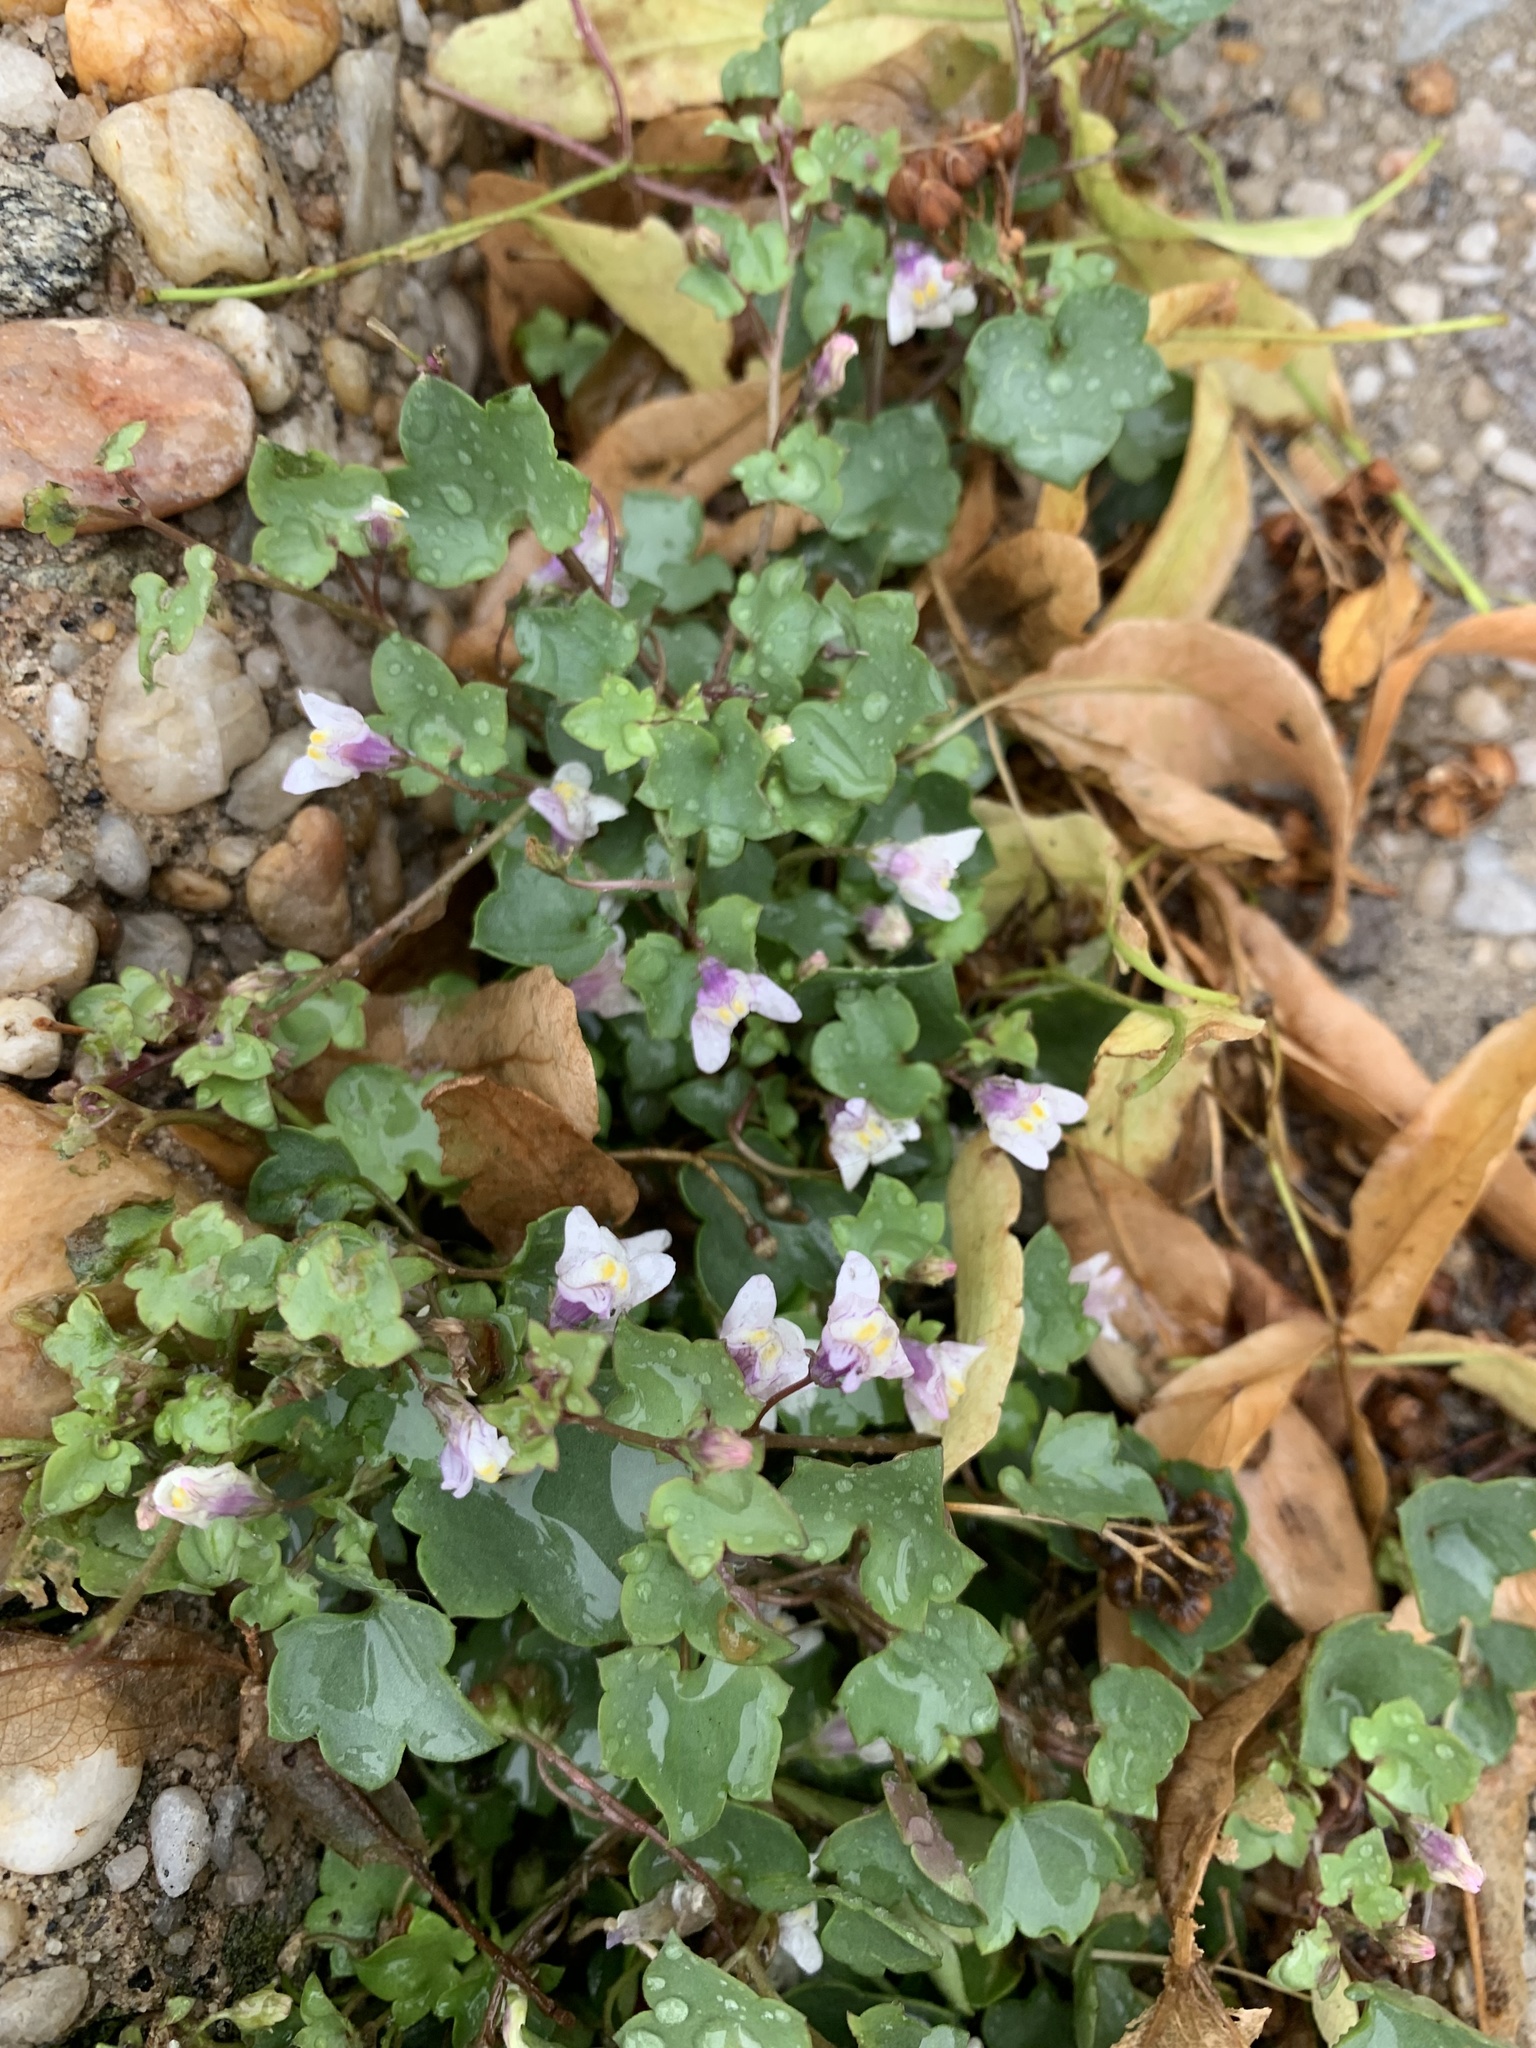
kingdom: Plantae
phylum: Tracheophyta
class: Magnoliopsida
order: Lamiales
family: Plantaginaceae
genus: Cymbalaria
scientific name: Cymbalaria muralis
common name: Ivy-leaved toadflax
